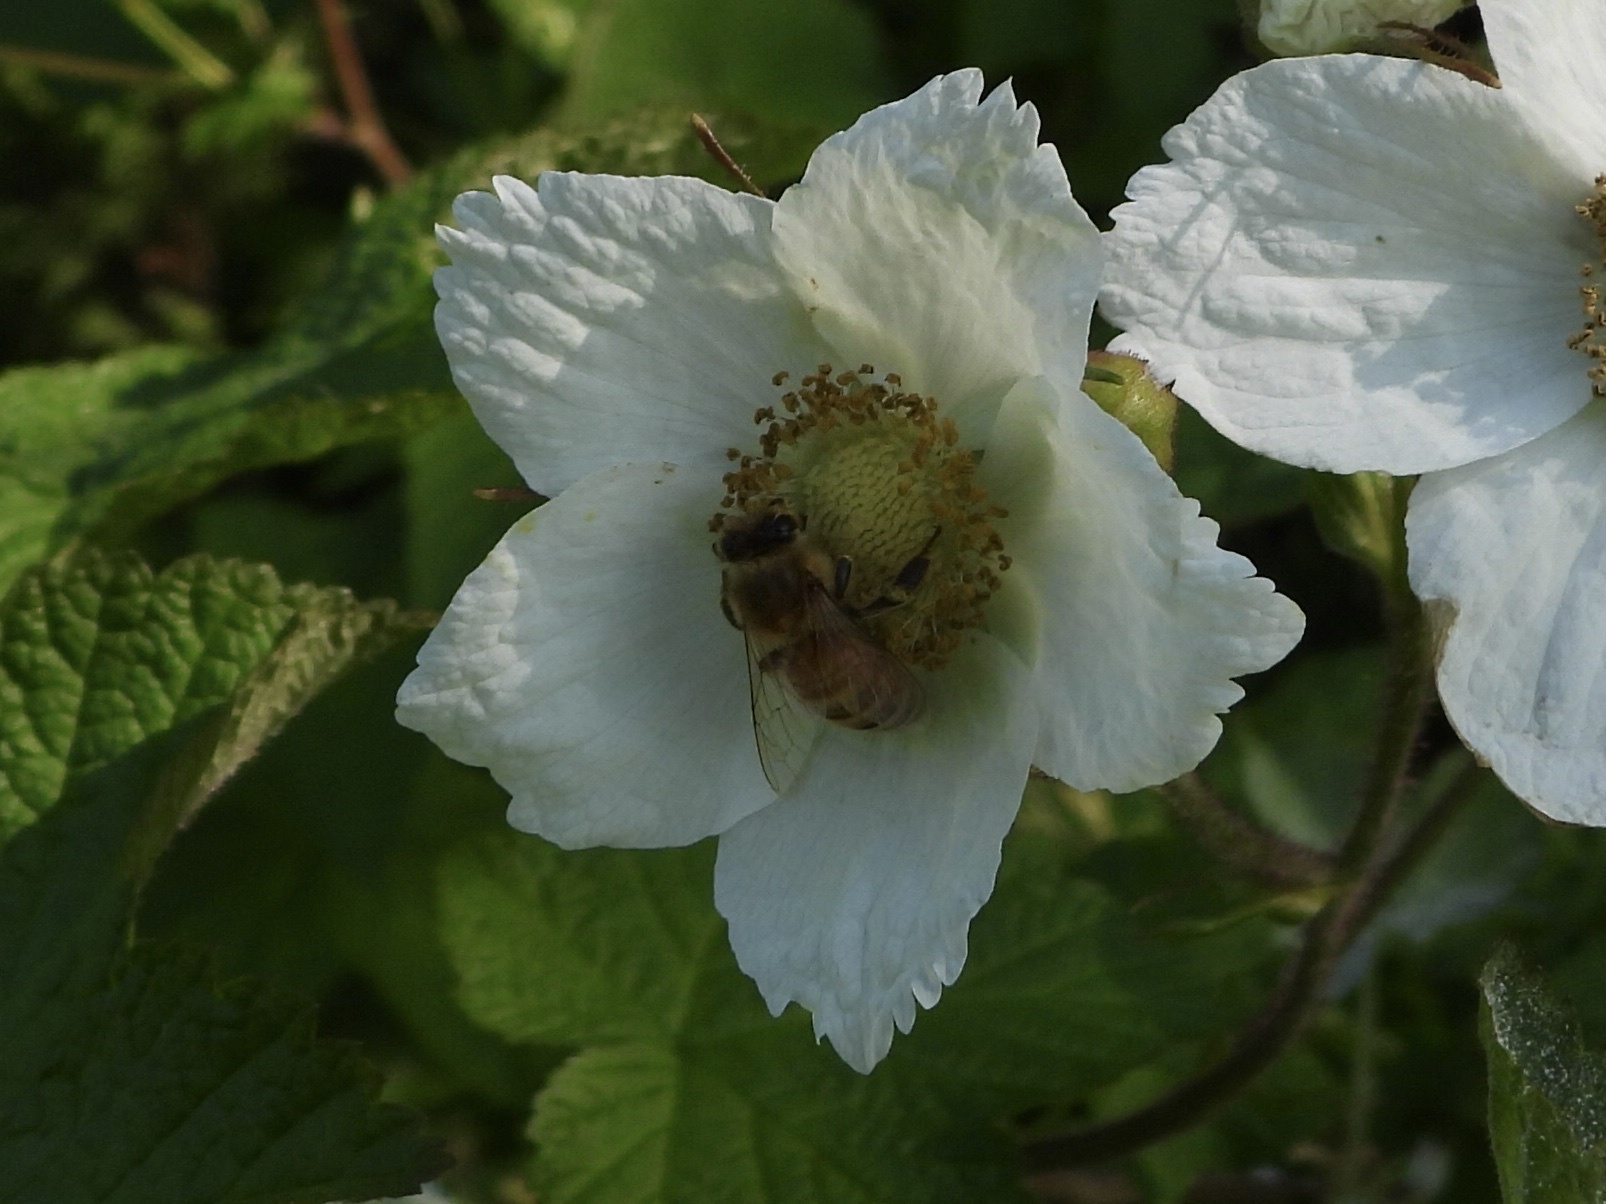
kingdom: Animalia
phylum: Arthropoda
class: Insecta
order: Hymenoptera
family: Apidae
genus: Apis
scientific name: Apis mellifera
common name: Honey bee
